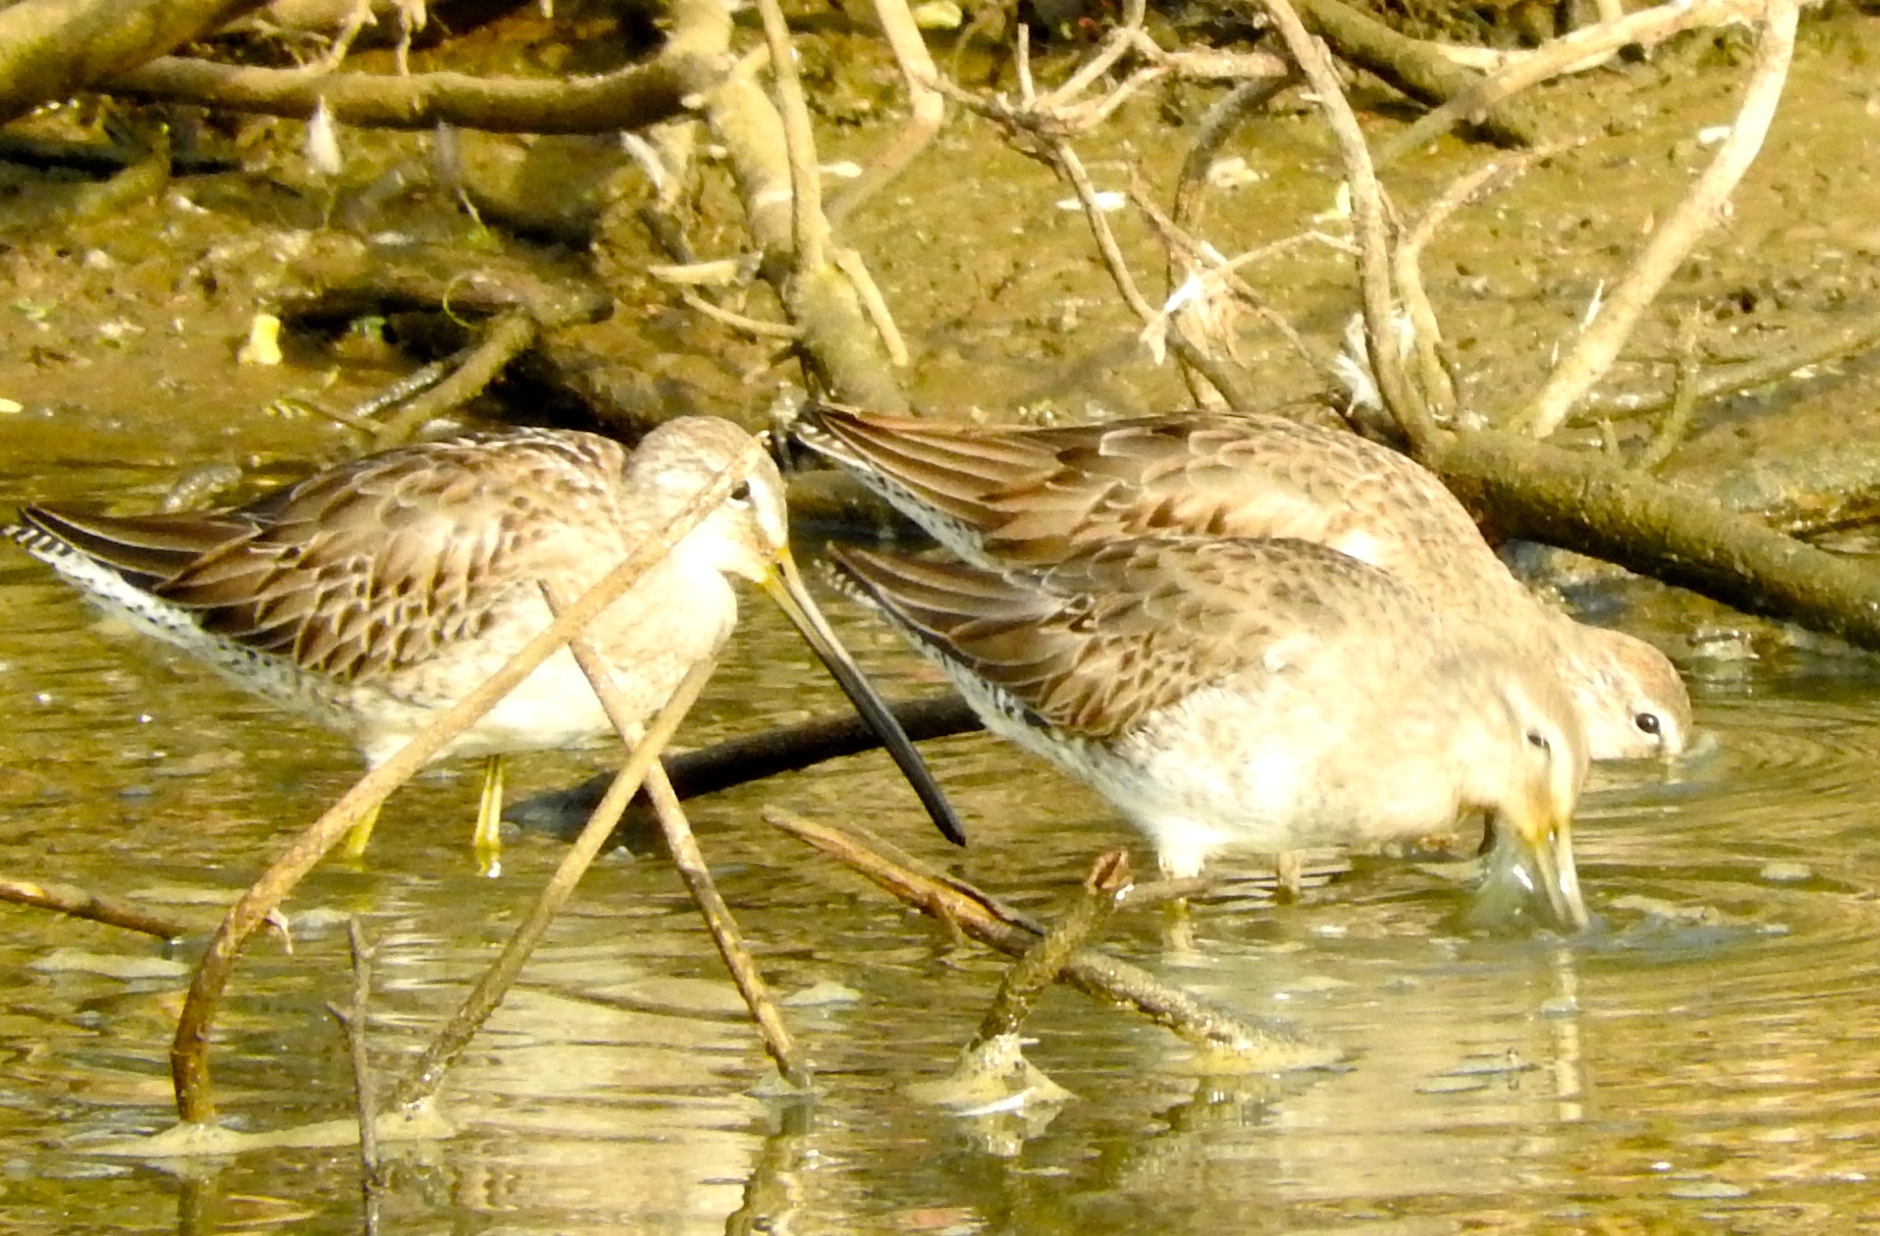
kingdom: Animalia
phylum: Chordata
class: Aves
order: Charadriiformes
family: Scolopacidae
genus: Limnodromus
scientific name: Limnodromus
